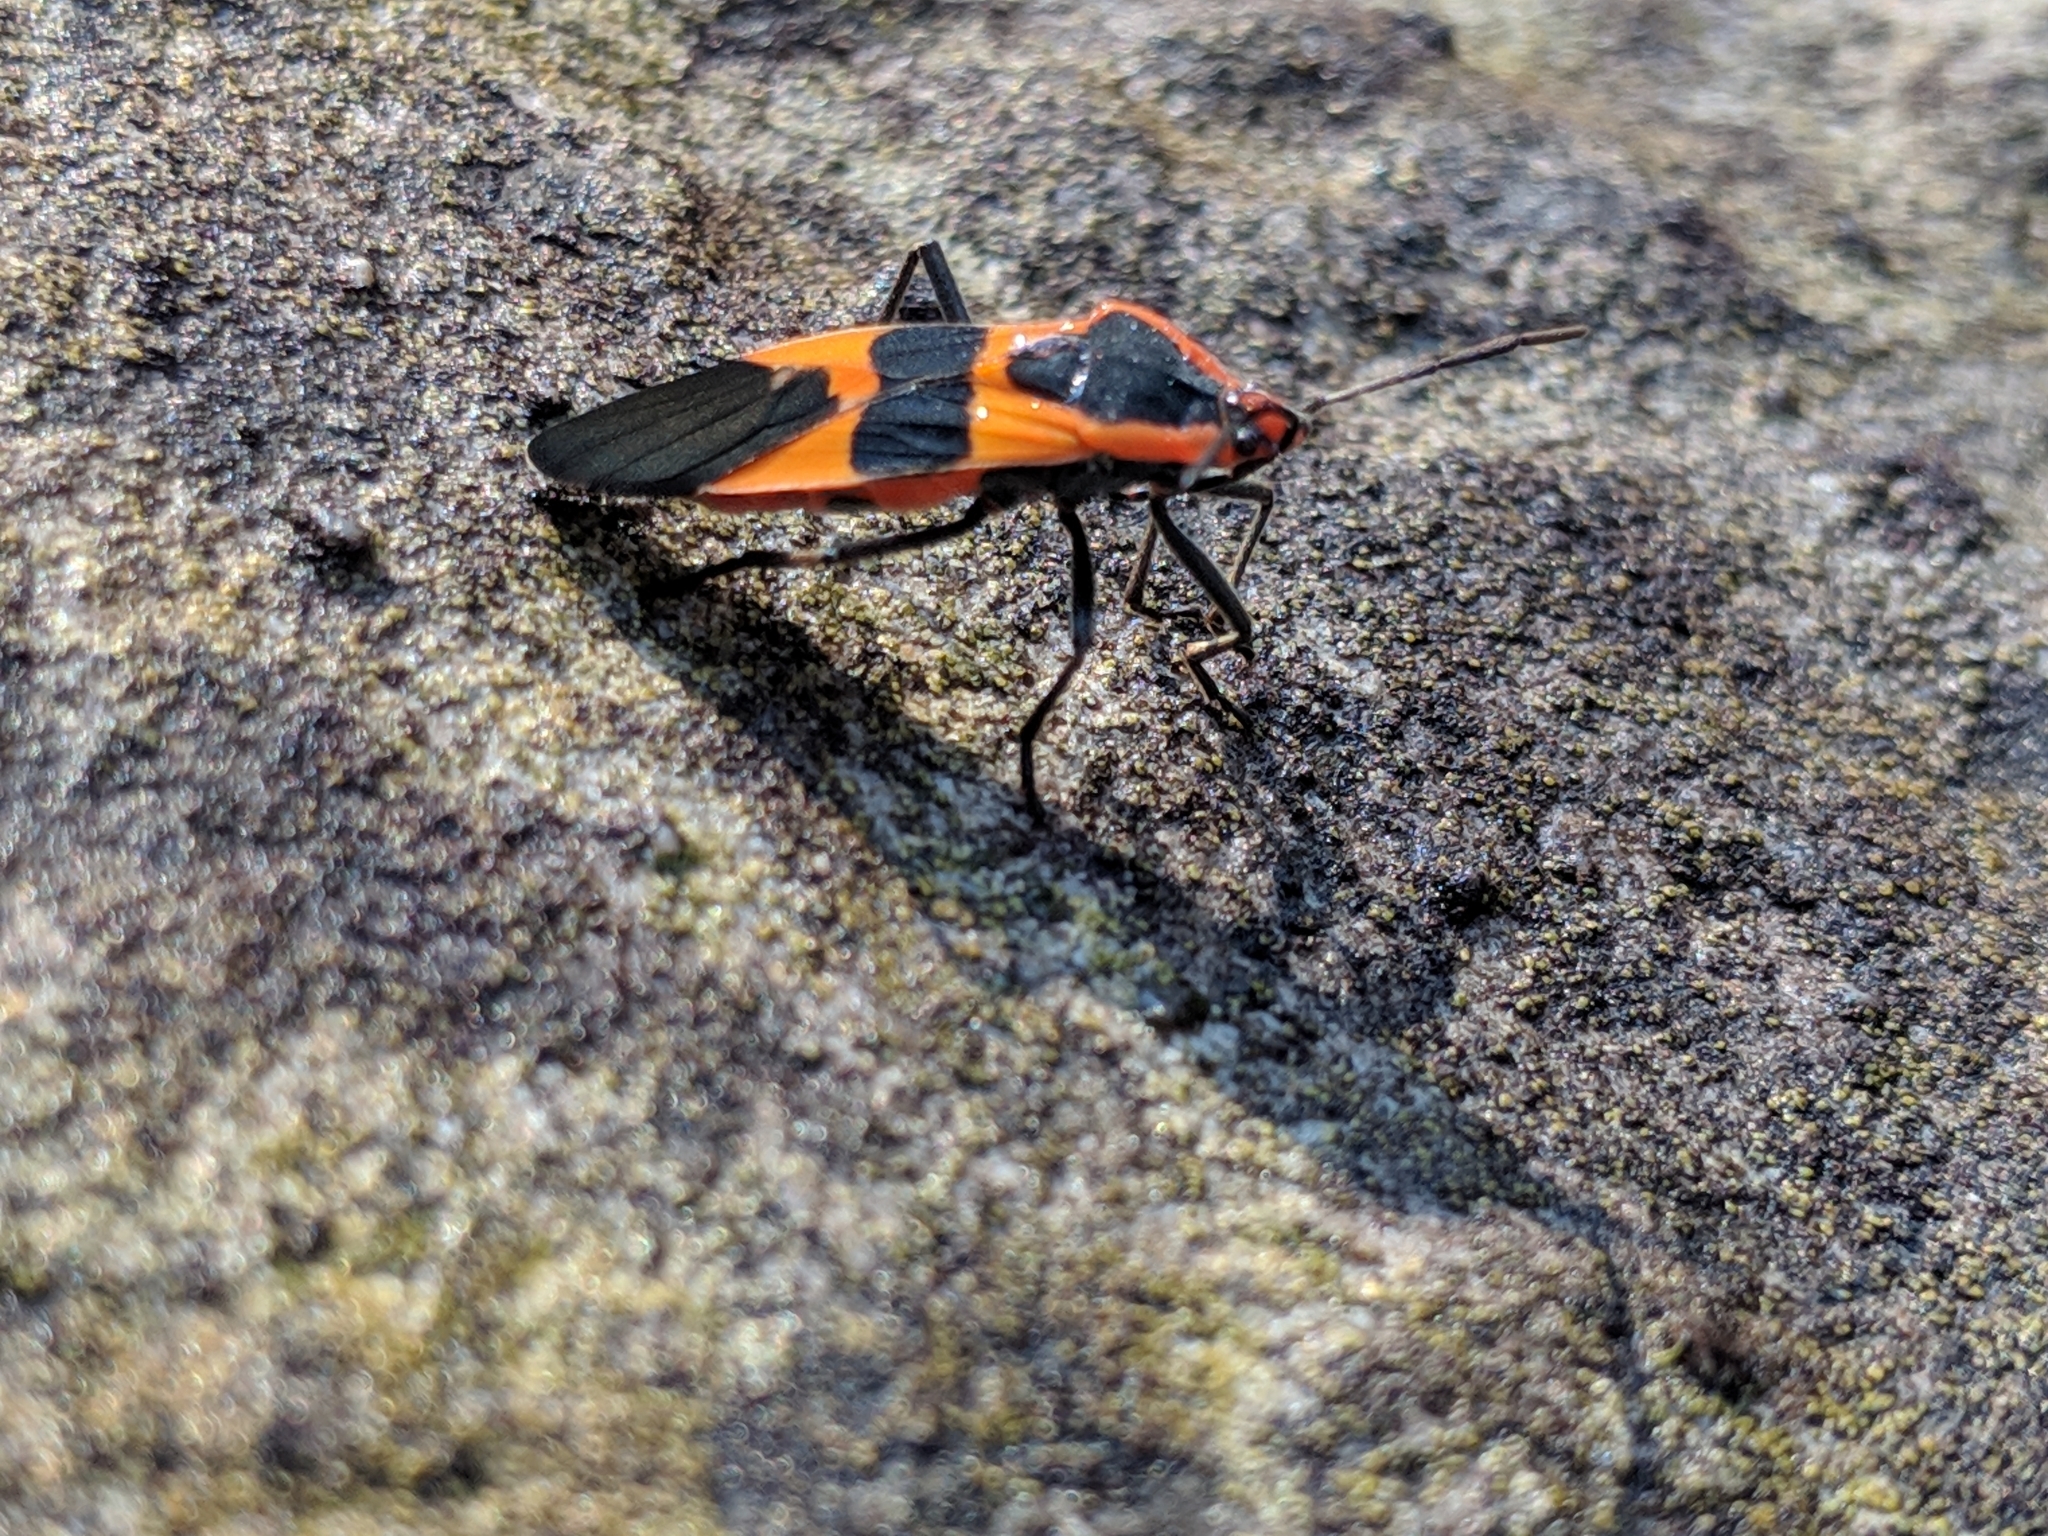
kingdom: Animalia
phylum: Arthropoda
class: Insecta
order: Hemiptera
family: Lygaeidae
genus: Oncopeltus
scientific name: Oncopeltus fasciatus
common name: Large milkweed bug
